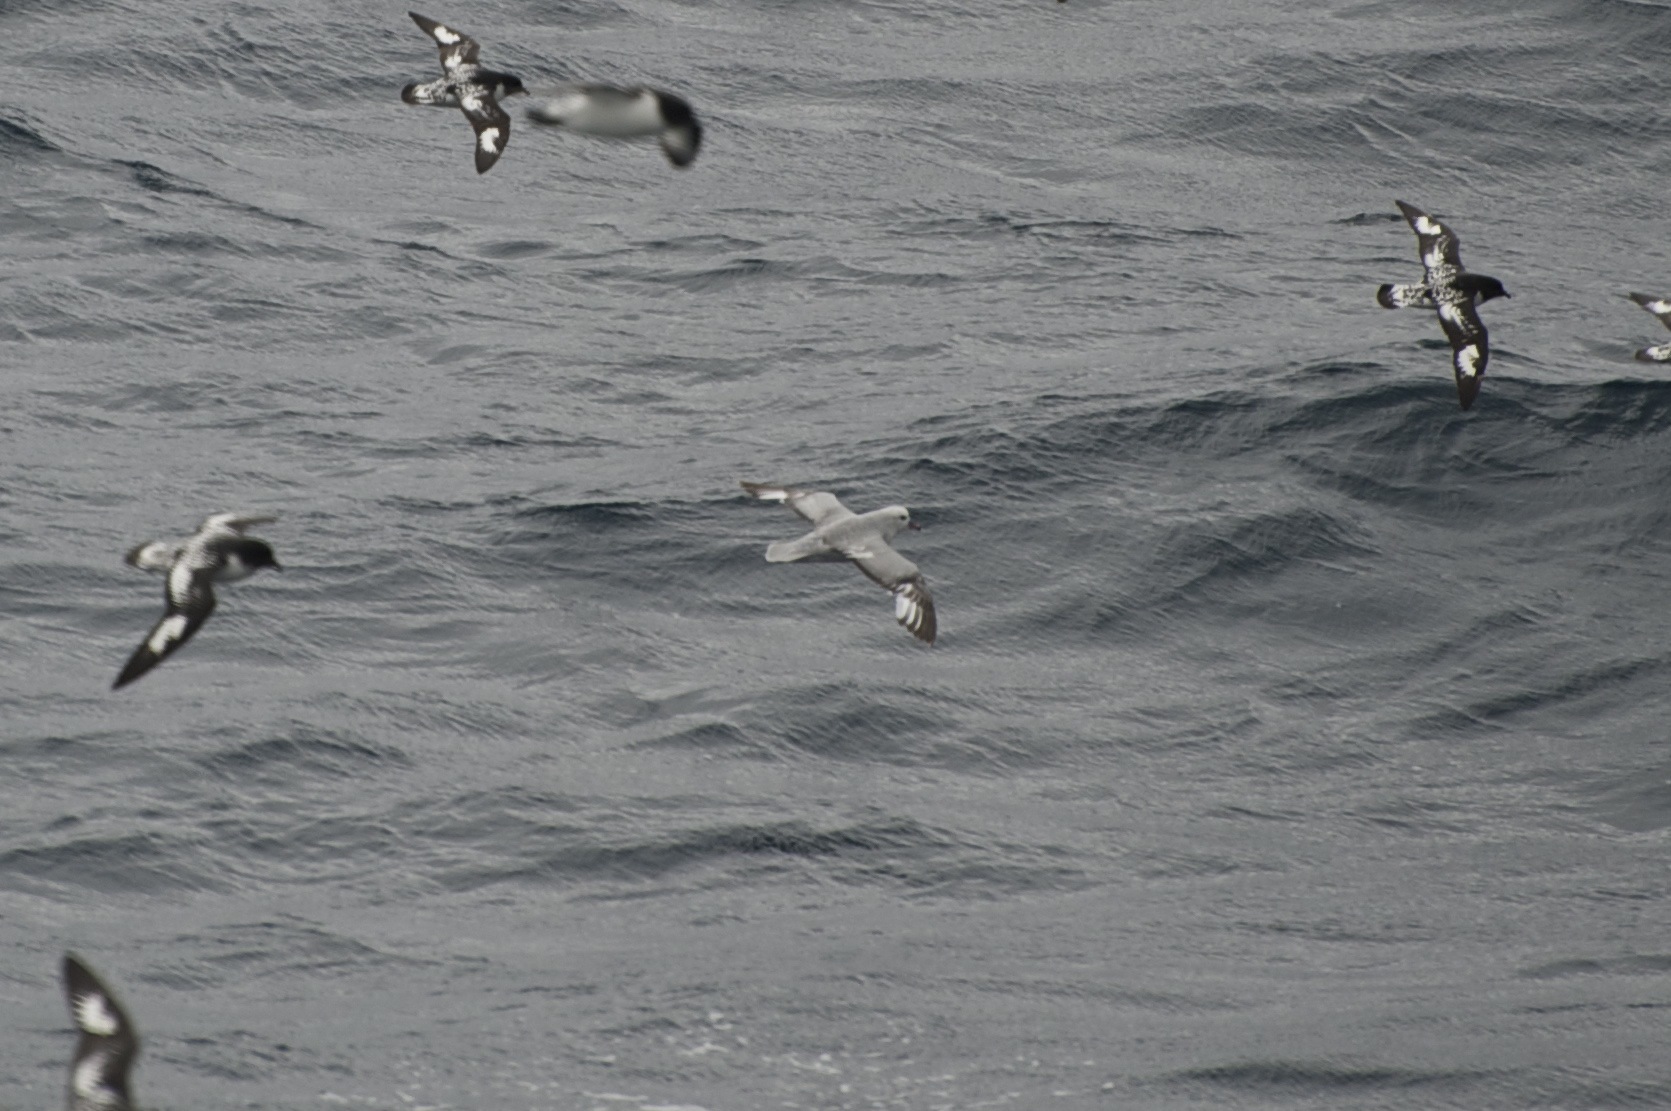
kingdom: Animalia
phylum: Chordata
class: Aves
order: Procellariiformes
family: Procellariidae
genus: Fulmarus
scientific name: Fulmarus glacialoides
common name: Southern fulmar
